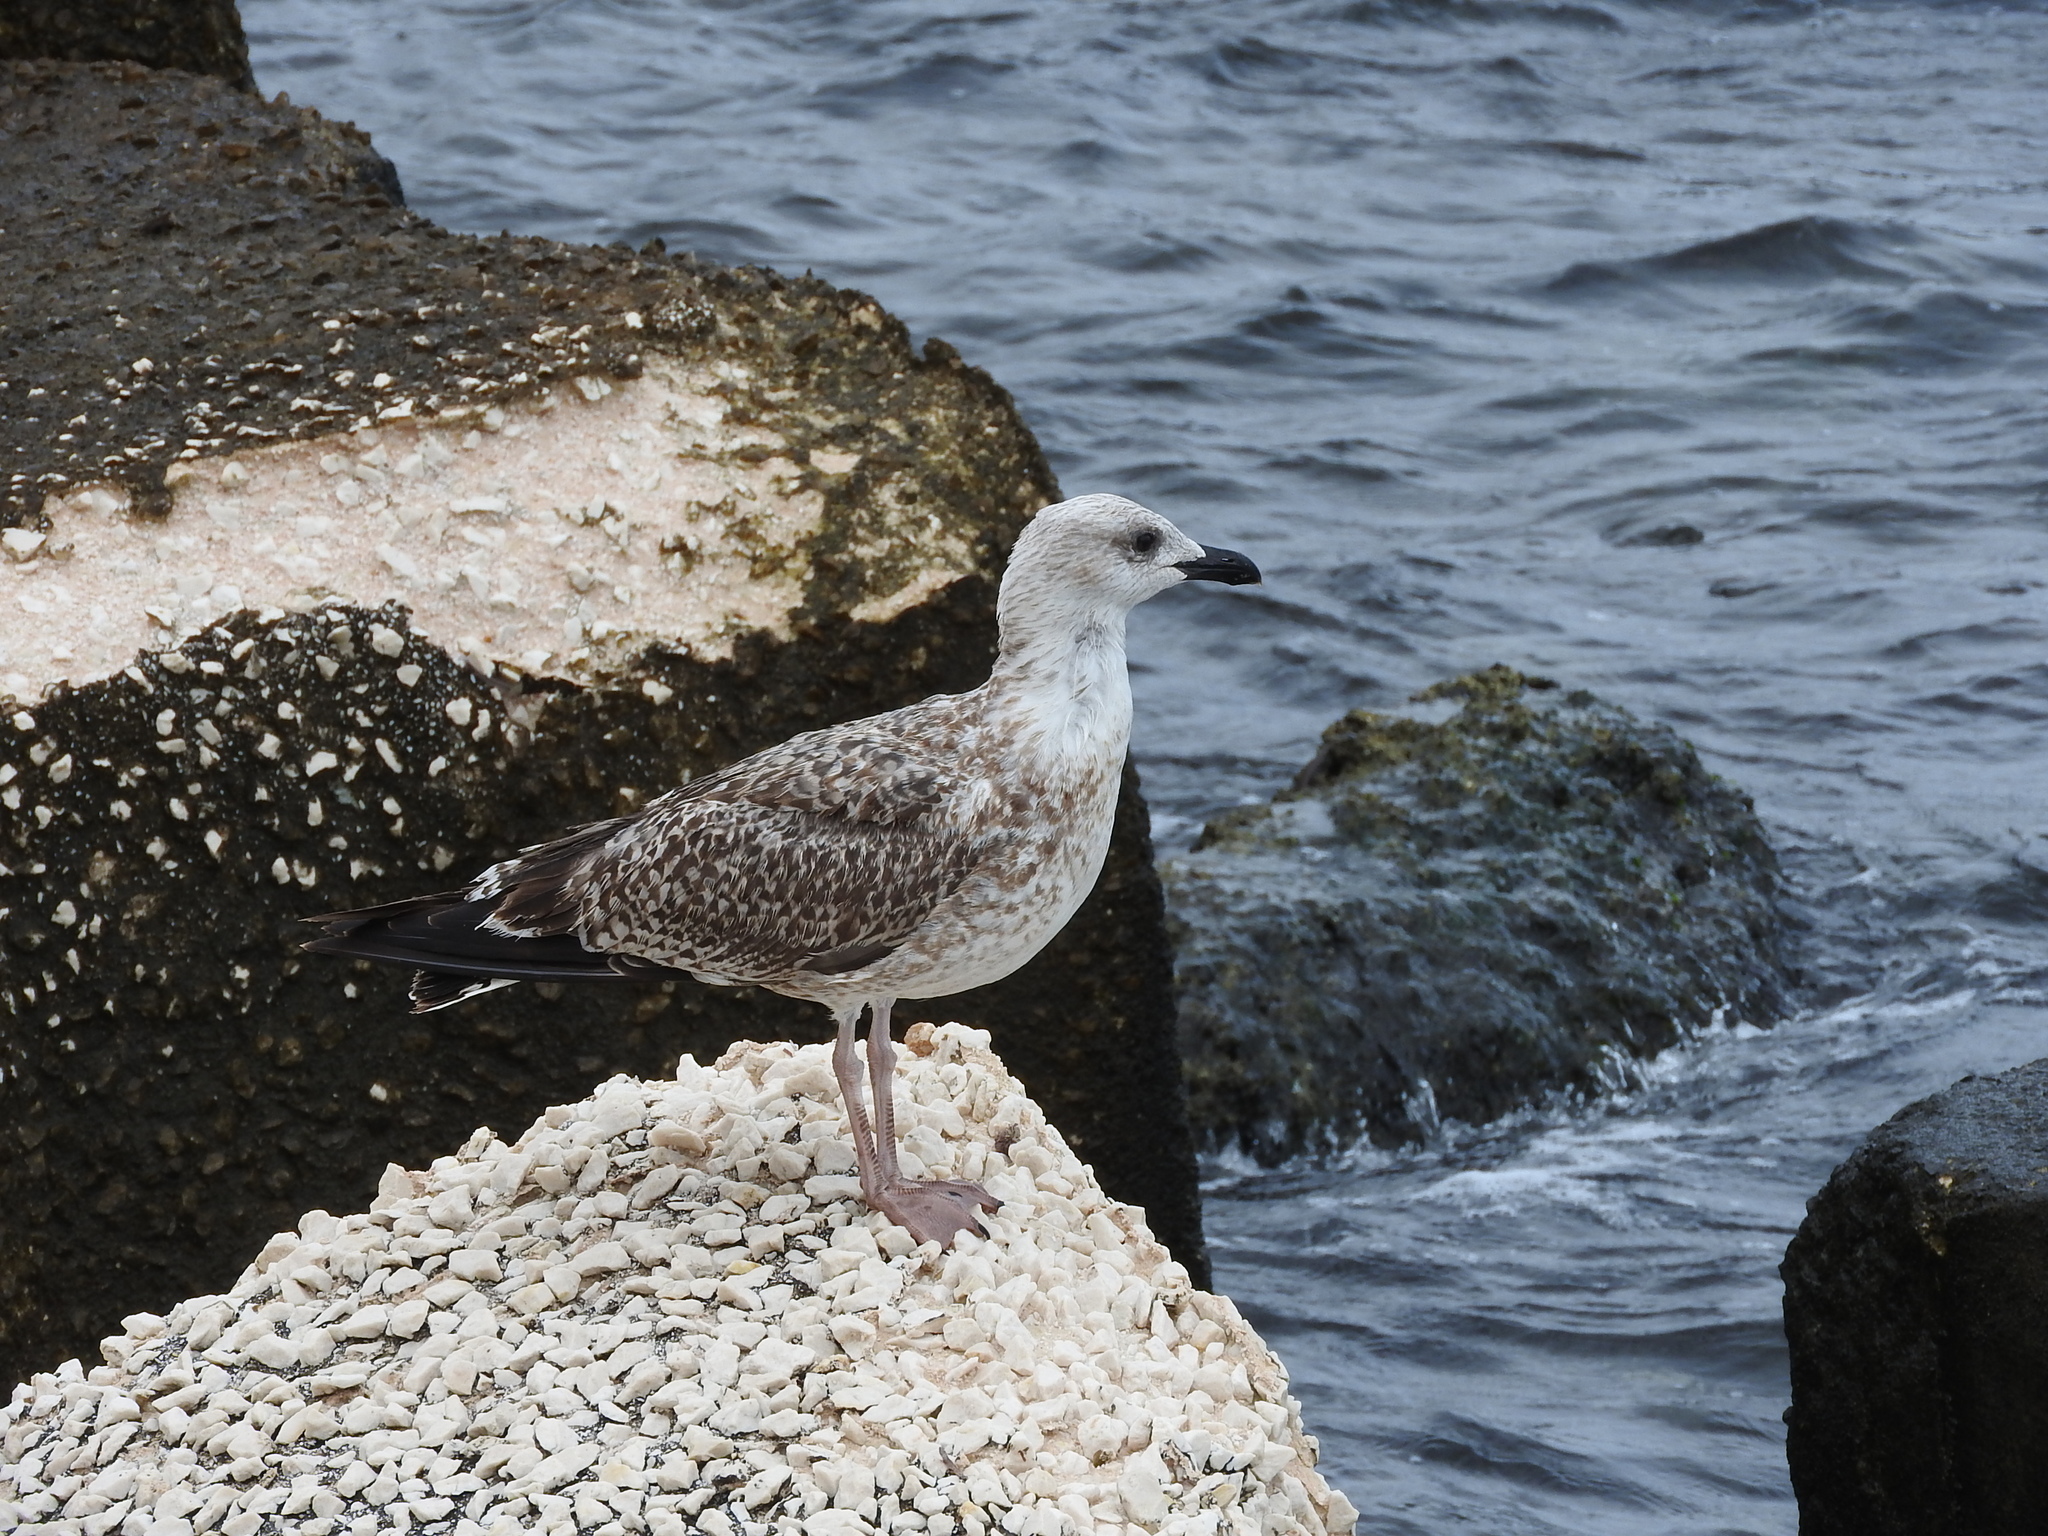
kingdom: Animalia
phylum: Chordata
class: Aves
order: Charadriiformes
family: Laridae
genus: Larus
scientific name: Larus michahellis
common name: Yellow-legged gull
